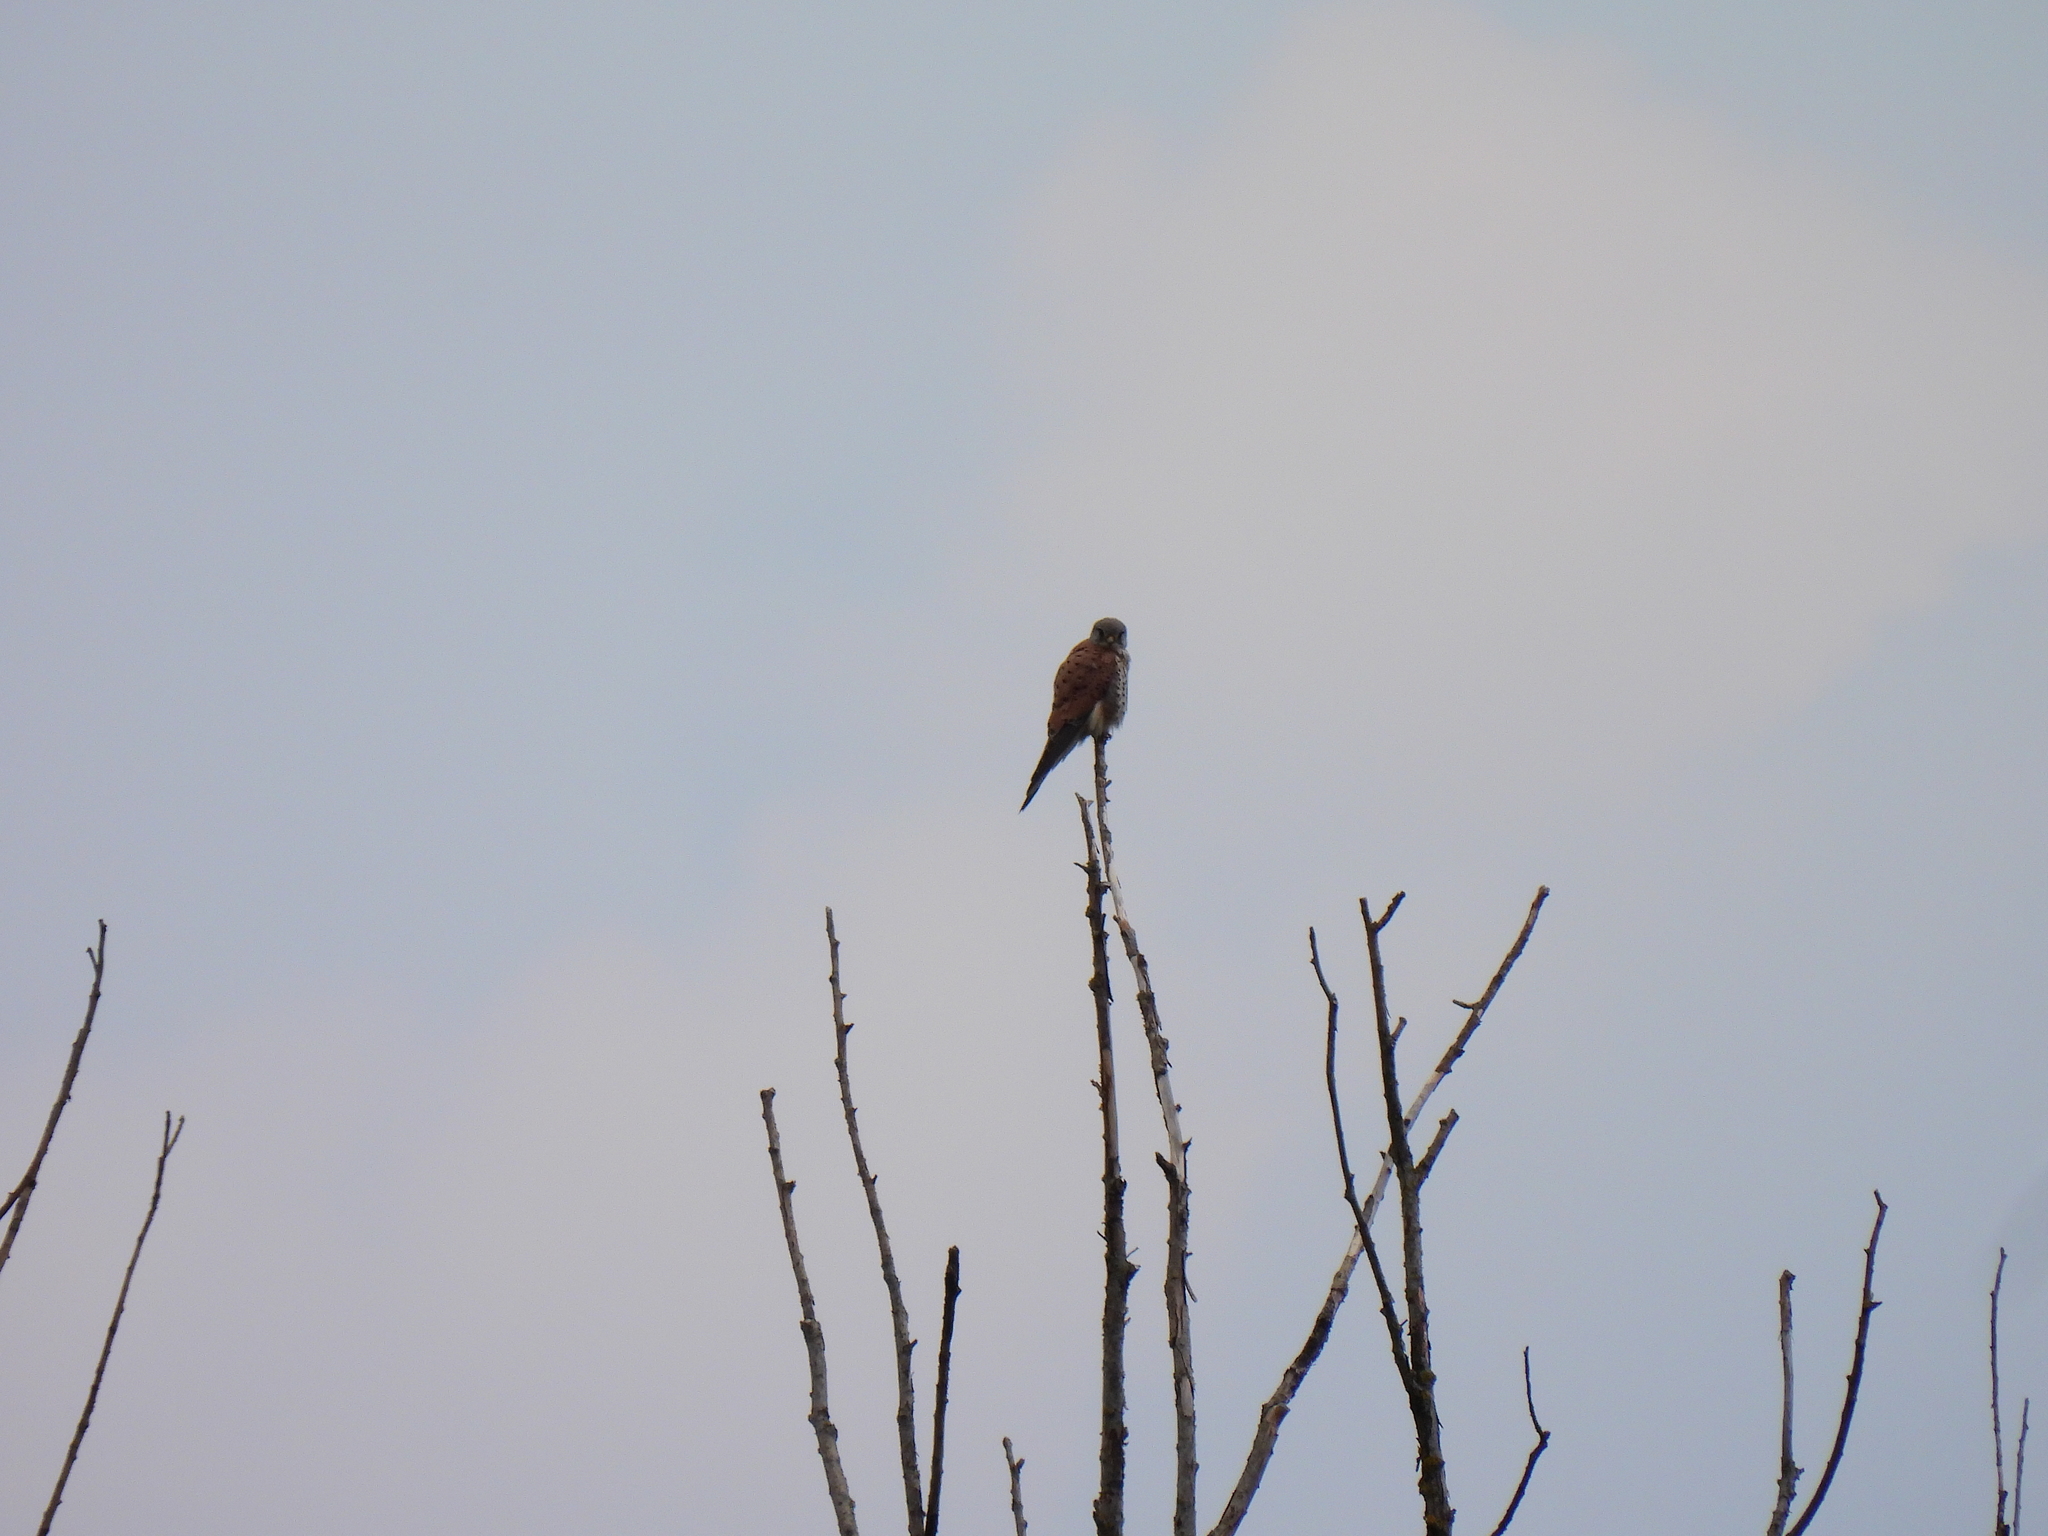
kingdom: Animalia
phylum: Chordata
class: Aves
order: Falconiformes
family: Falconidae
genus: Falco
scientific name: Falco tinnunculus
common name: Common kestrel
